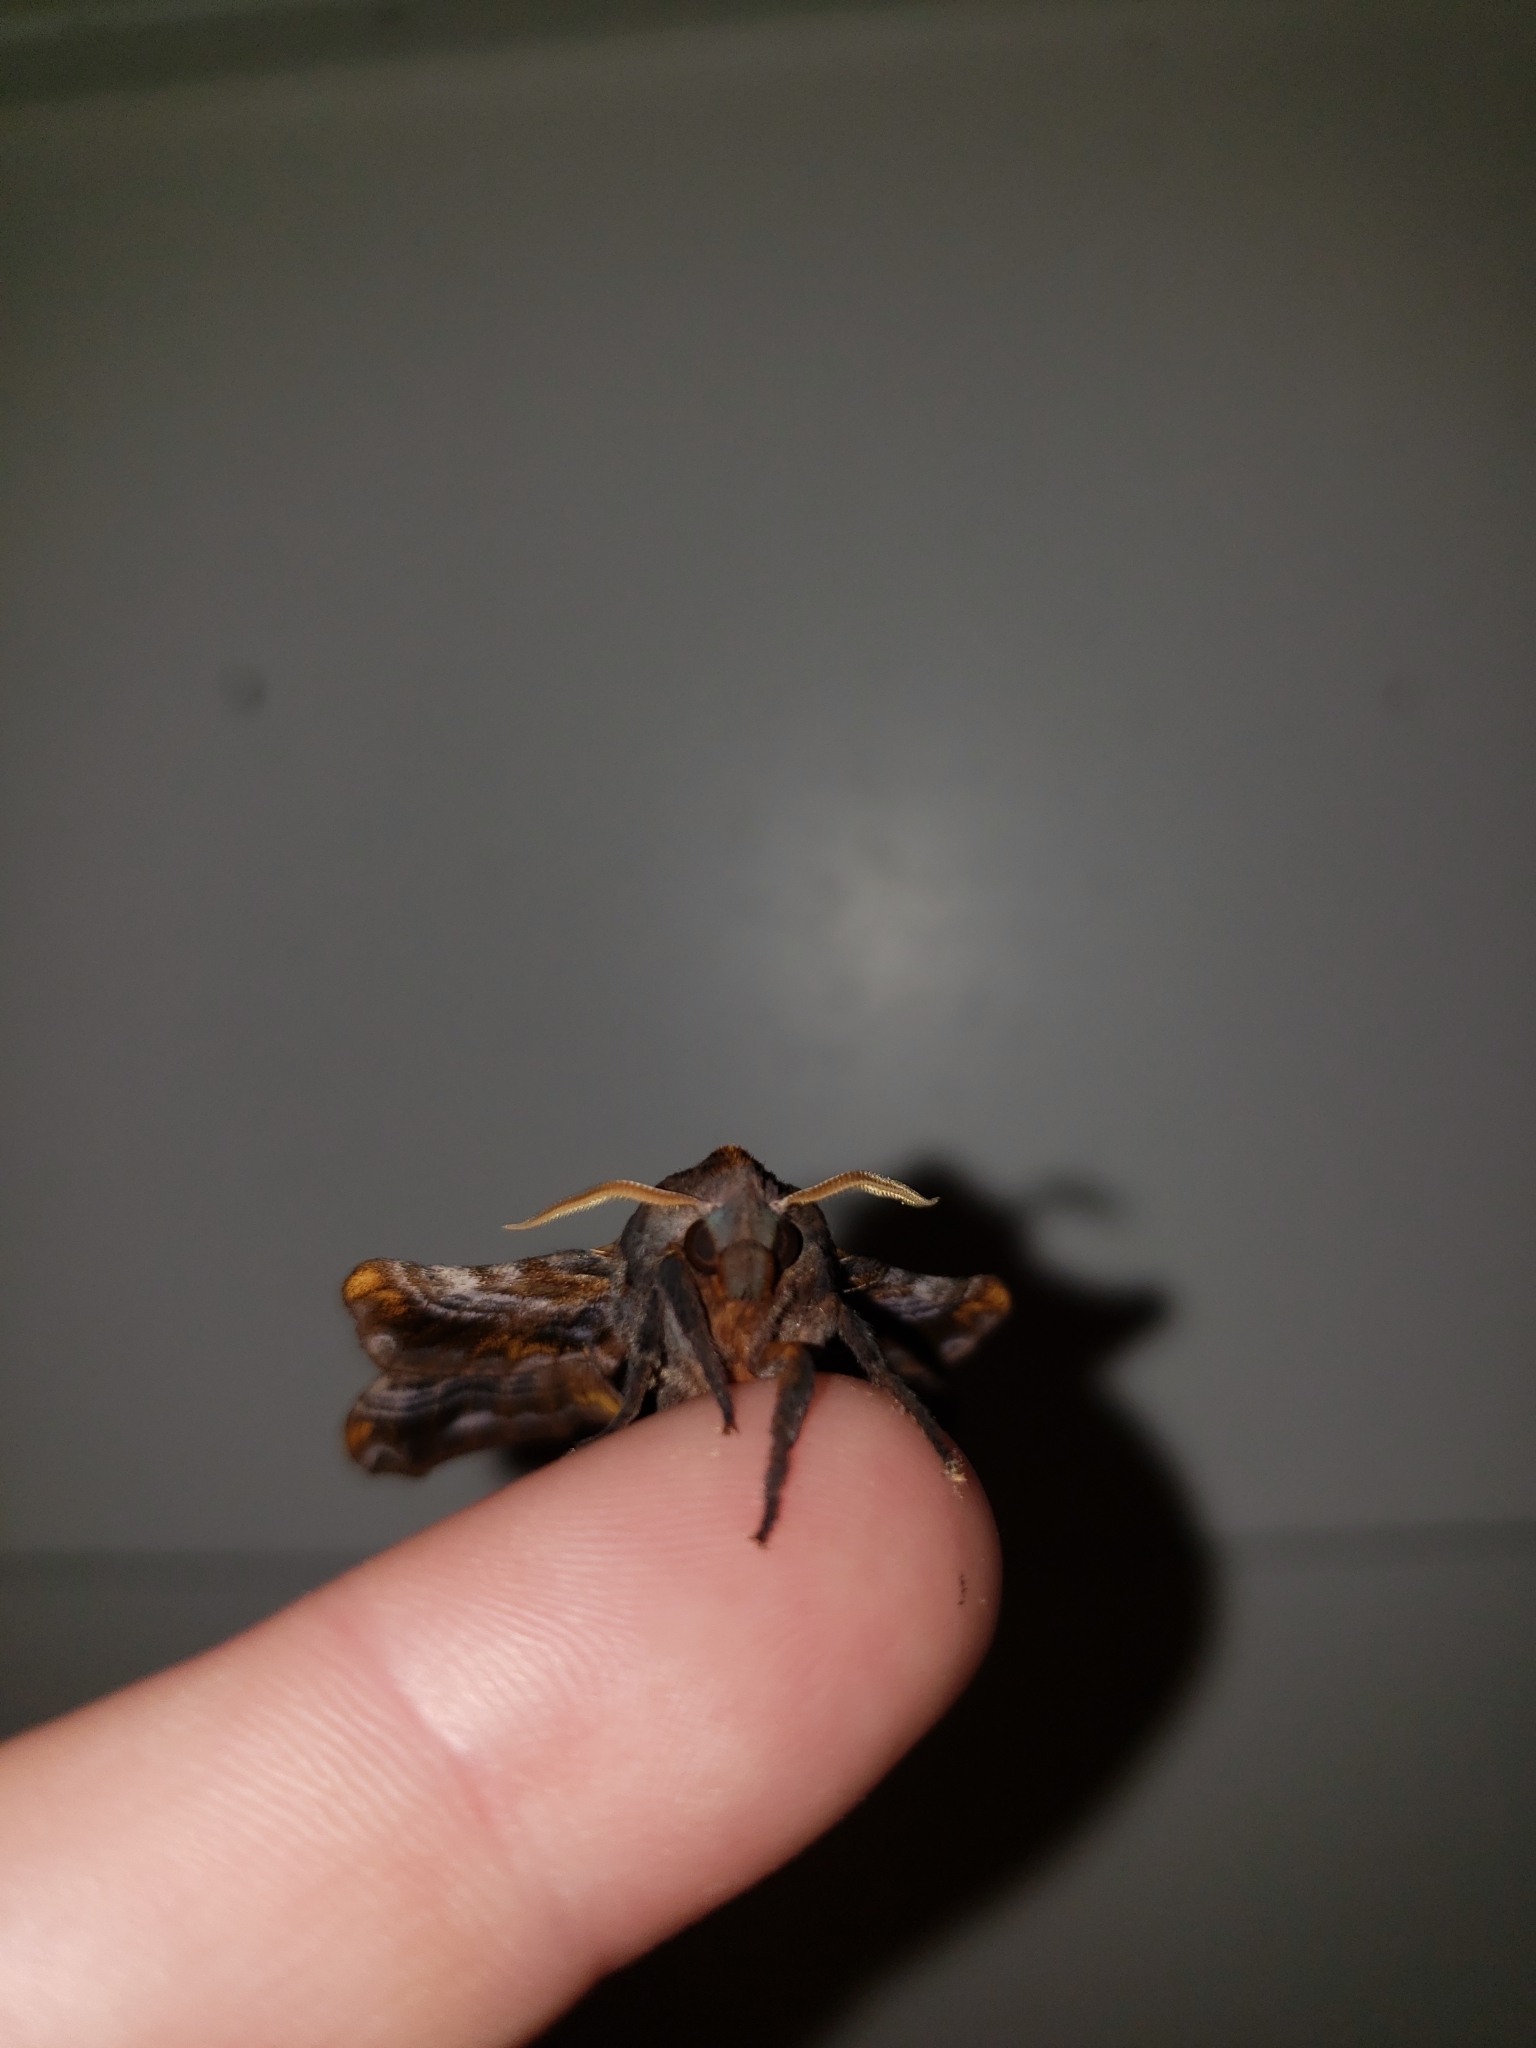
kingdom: Animalia
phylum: Arthropoda
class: Insecta
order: Lepidoptera
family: Sphingidae
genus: Paonias
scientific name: Paonias myops
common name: Small-eyed sphinx
